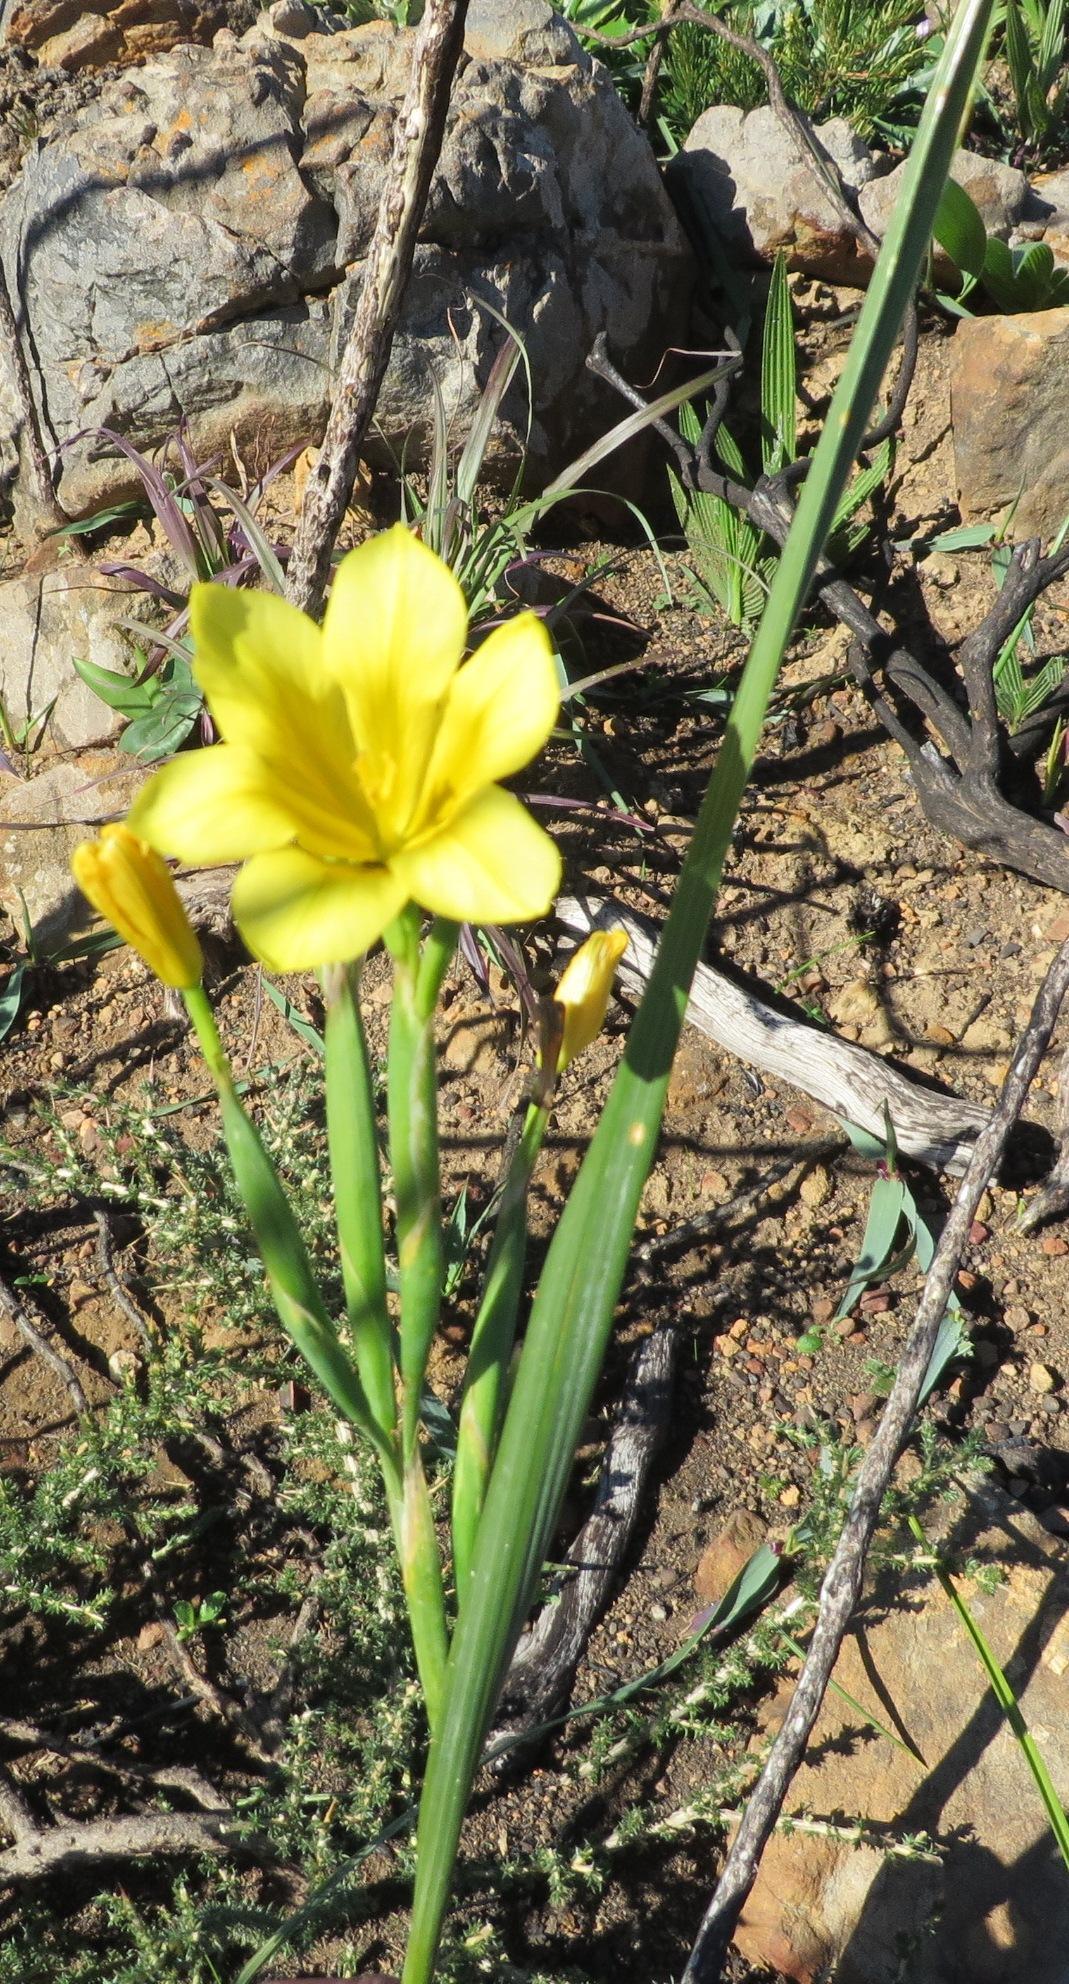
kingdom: Plantae
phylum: Tracheophyta
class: Liliopsida
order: Asparagales
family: Iridaceae
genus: Moraea
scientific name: Moraea ochroleuca
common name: Red tulp
